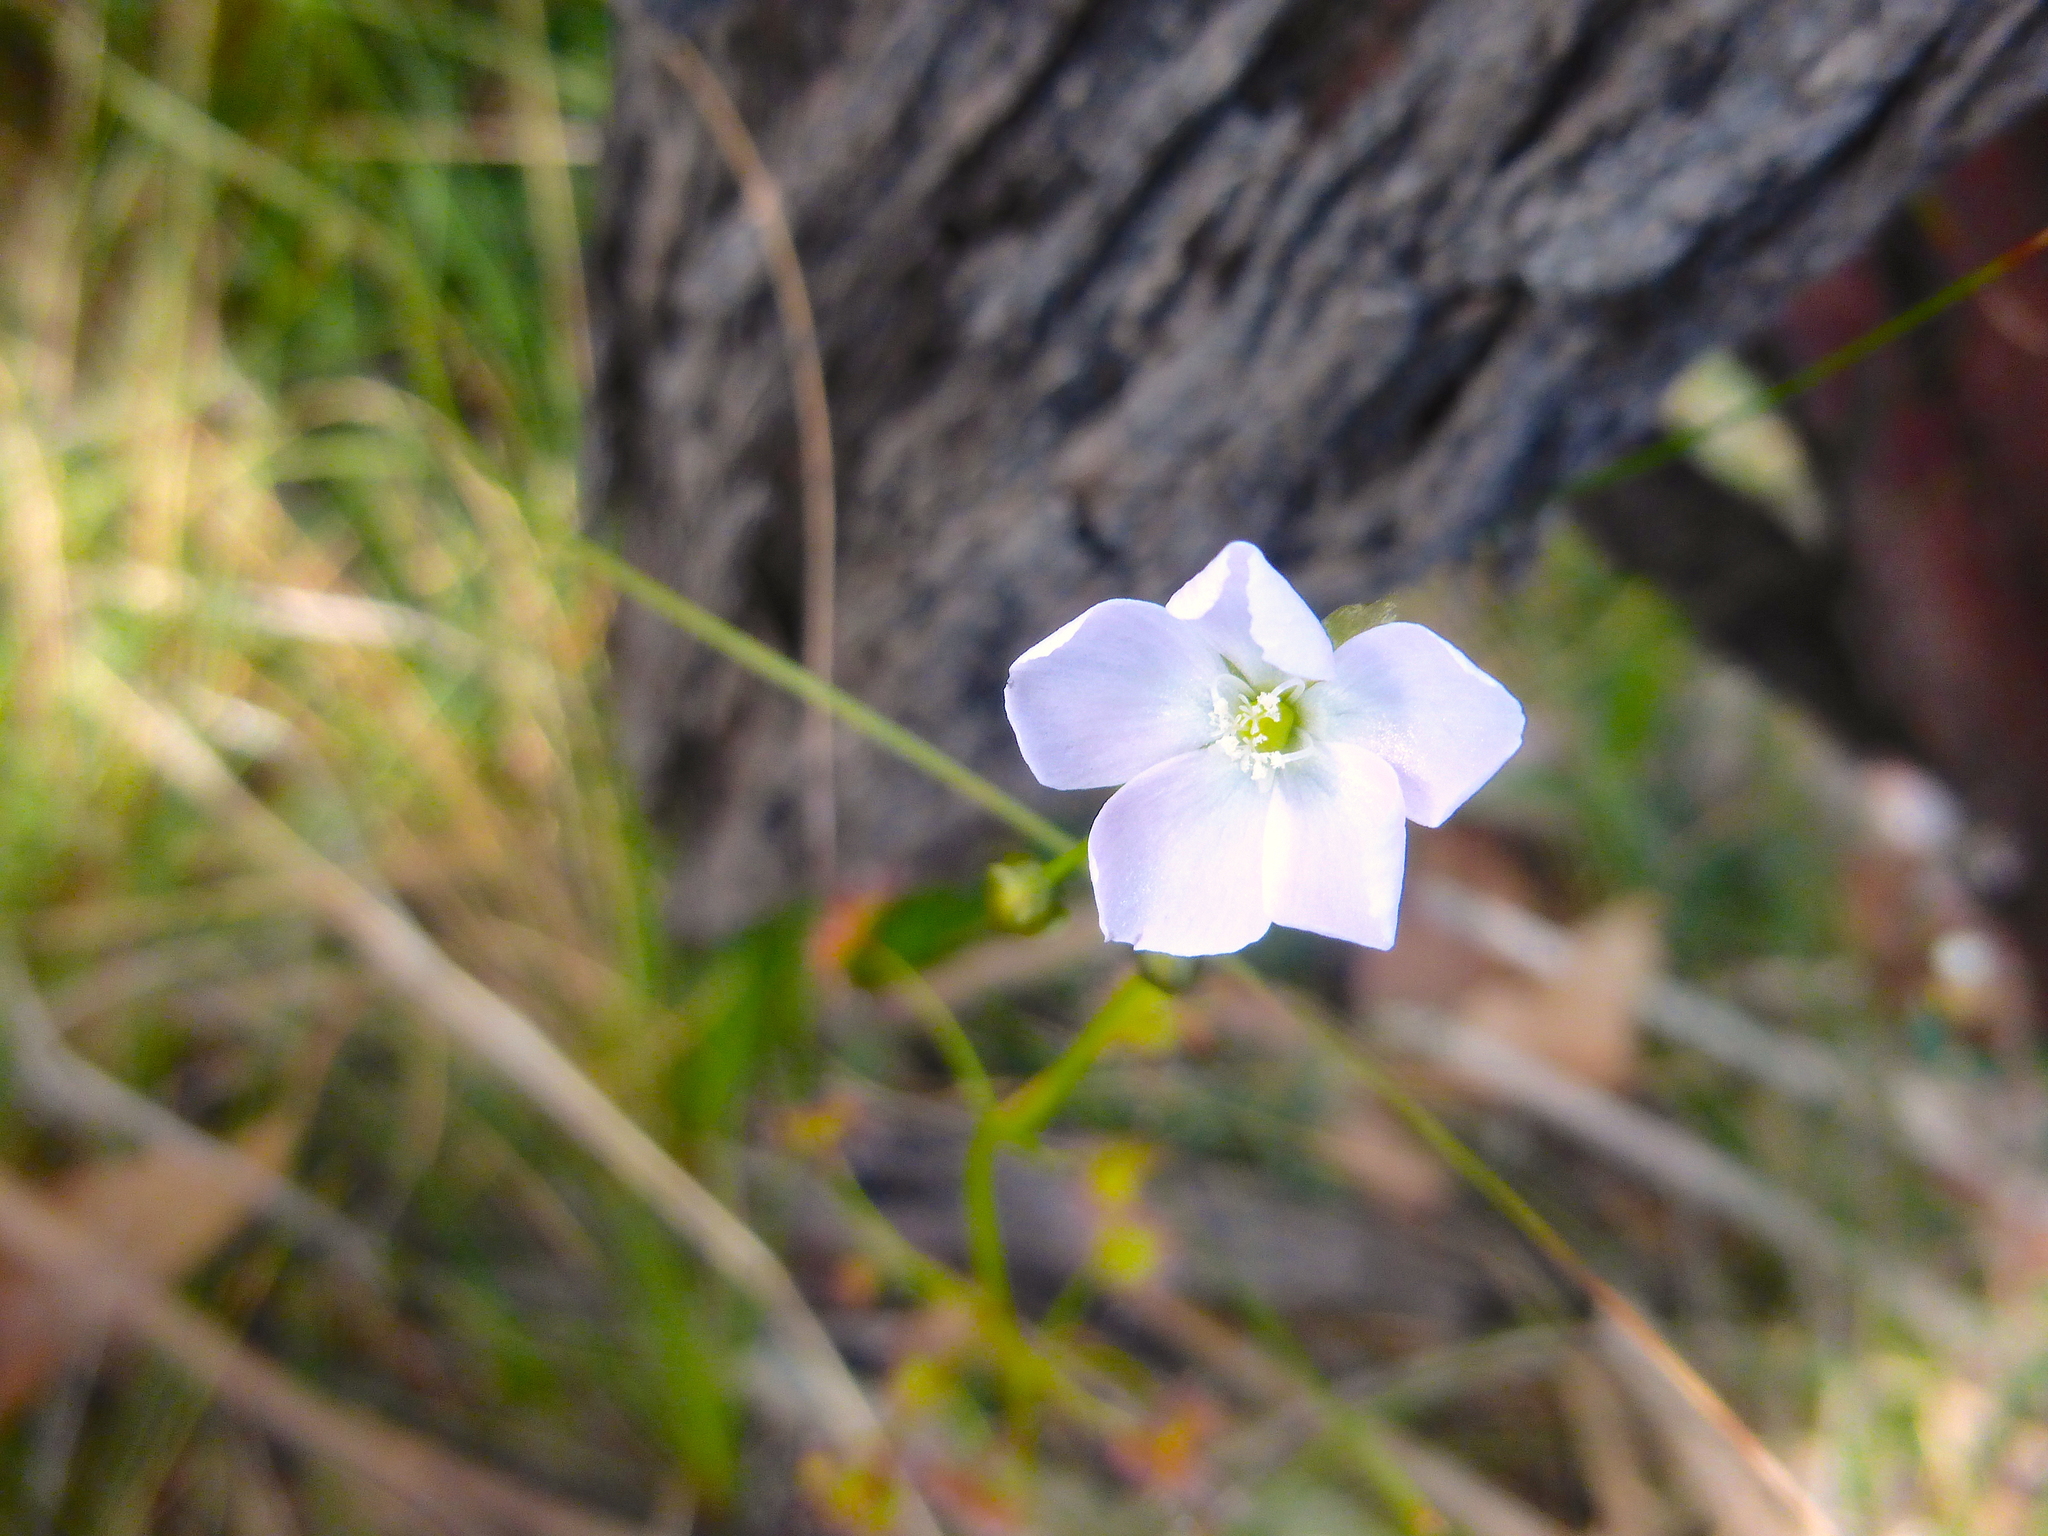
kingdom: Plantae
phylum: Tracheophyta
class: Magnoliopsida
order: Caryophyllales
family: Droseraceae
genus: Drosera
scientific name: Drosera peltata
